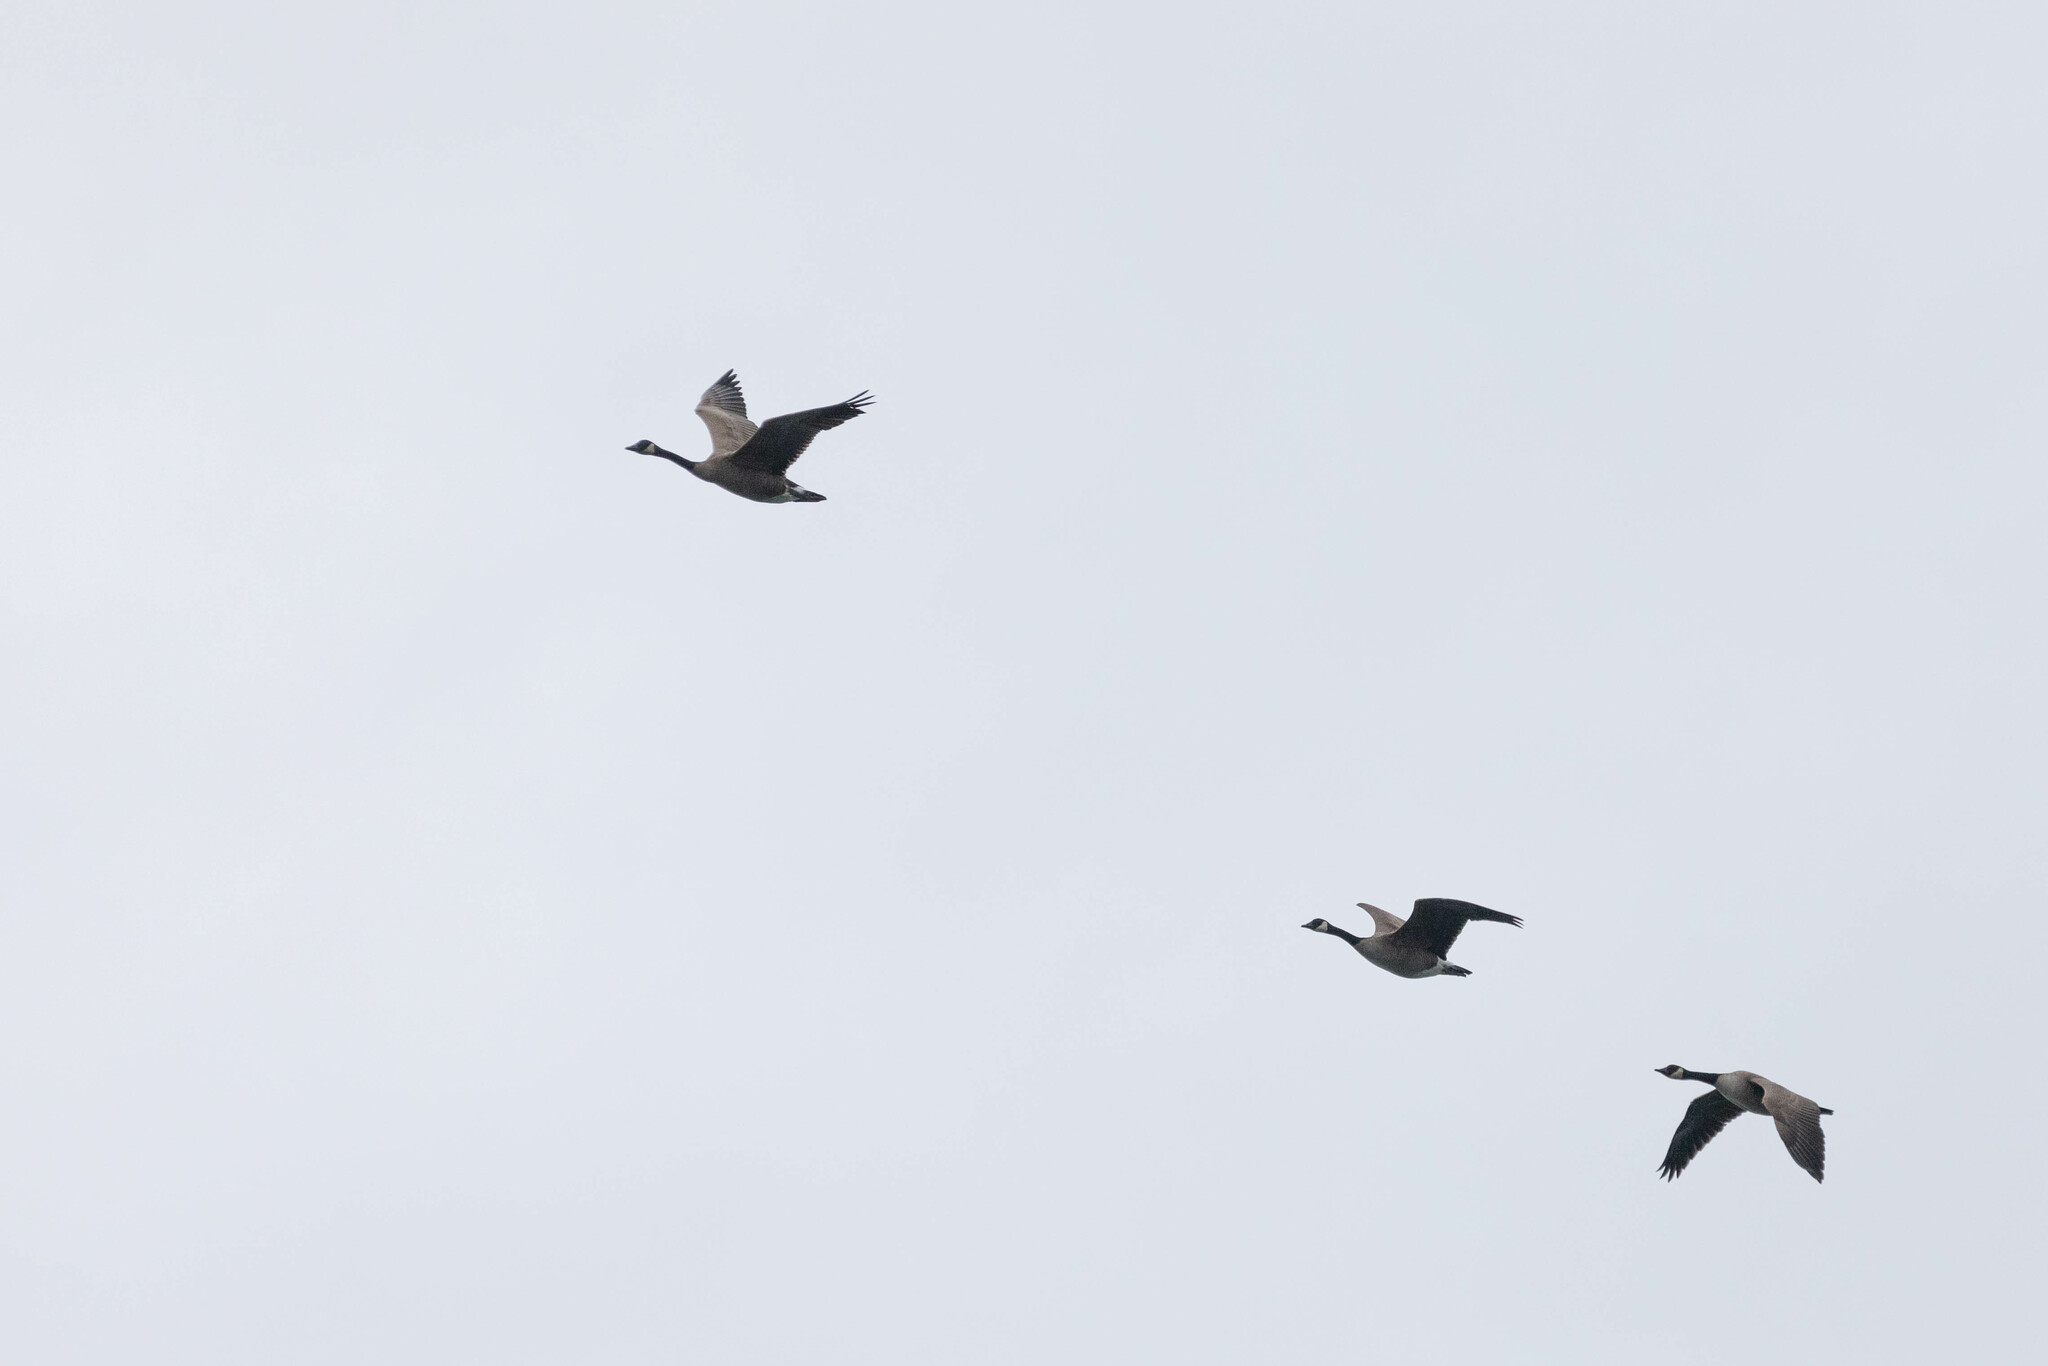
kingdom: Animalia
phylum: Chordata
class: Aves
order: Anseriformes
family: Anatidae
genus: Branta
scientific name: Branta canadensis
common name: Canada goose
